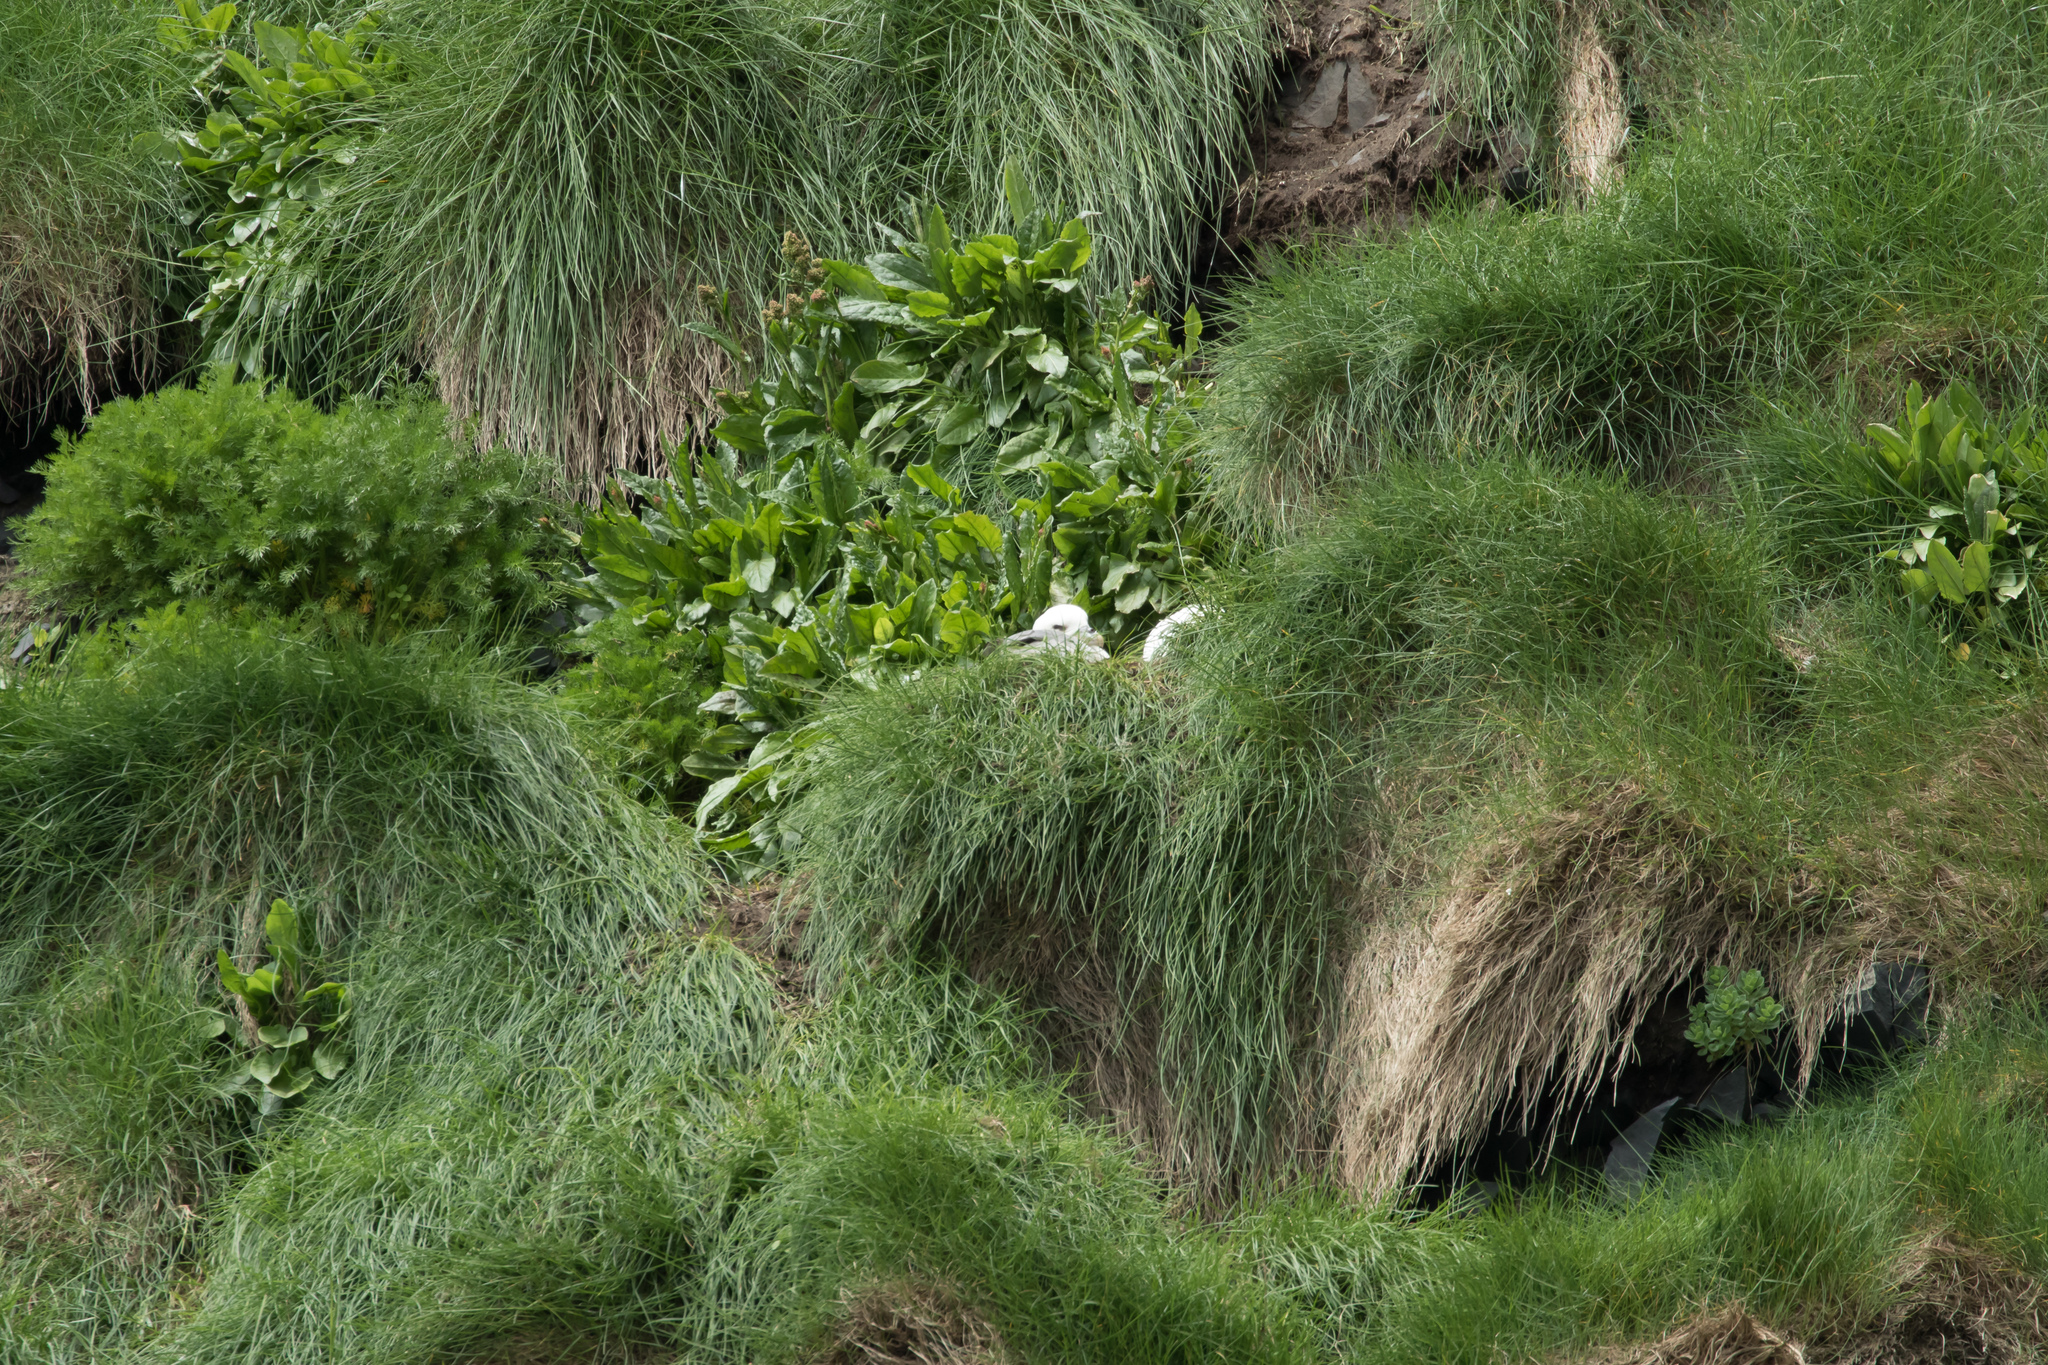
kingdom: Animalia
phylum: Chordata
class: Aves
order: Procellariiformes
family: Procellariidae
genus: Fulmarus
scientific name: Fulmarus glacialis
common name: Northern fulmar
